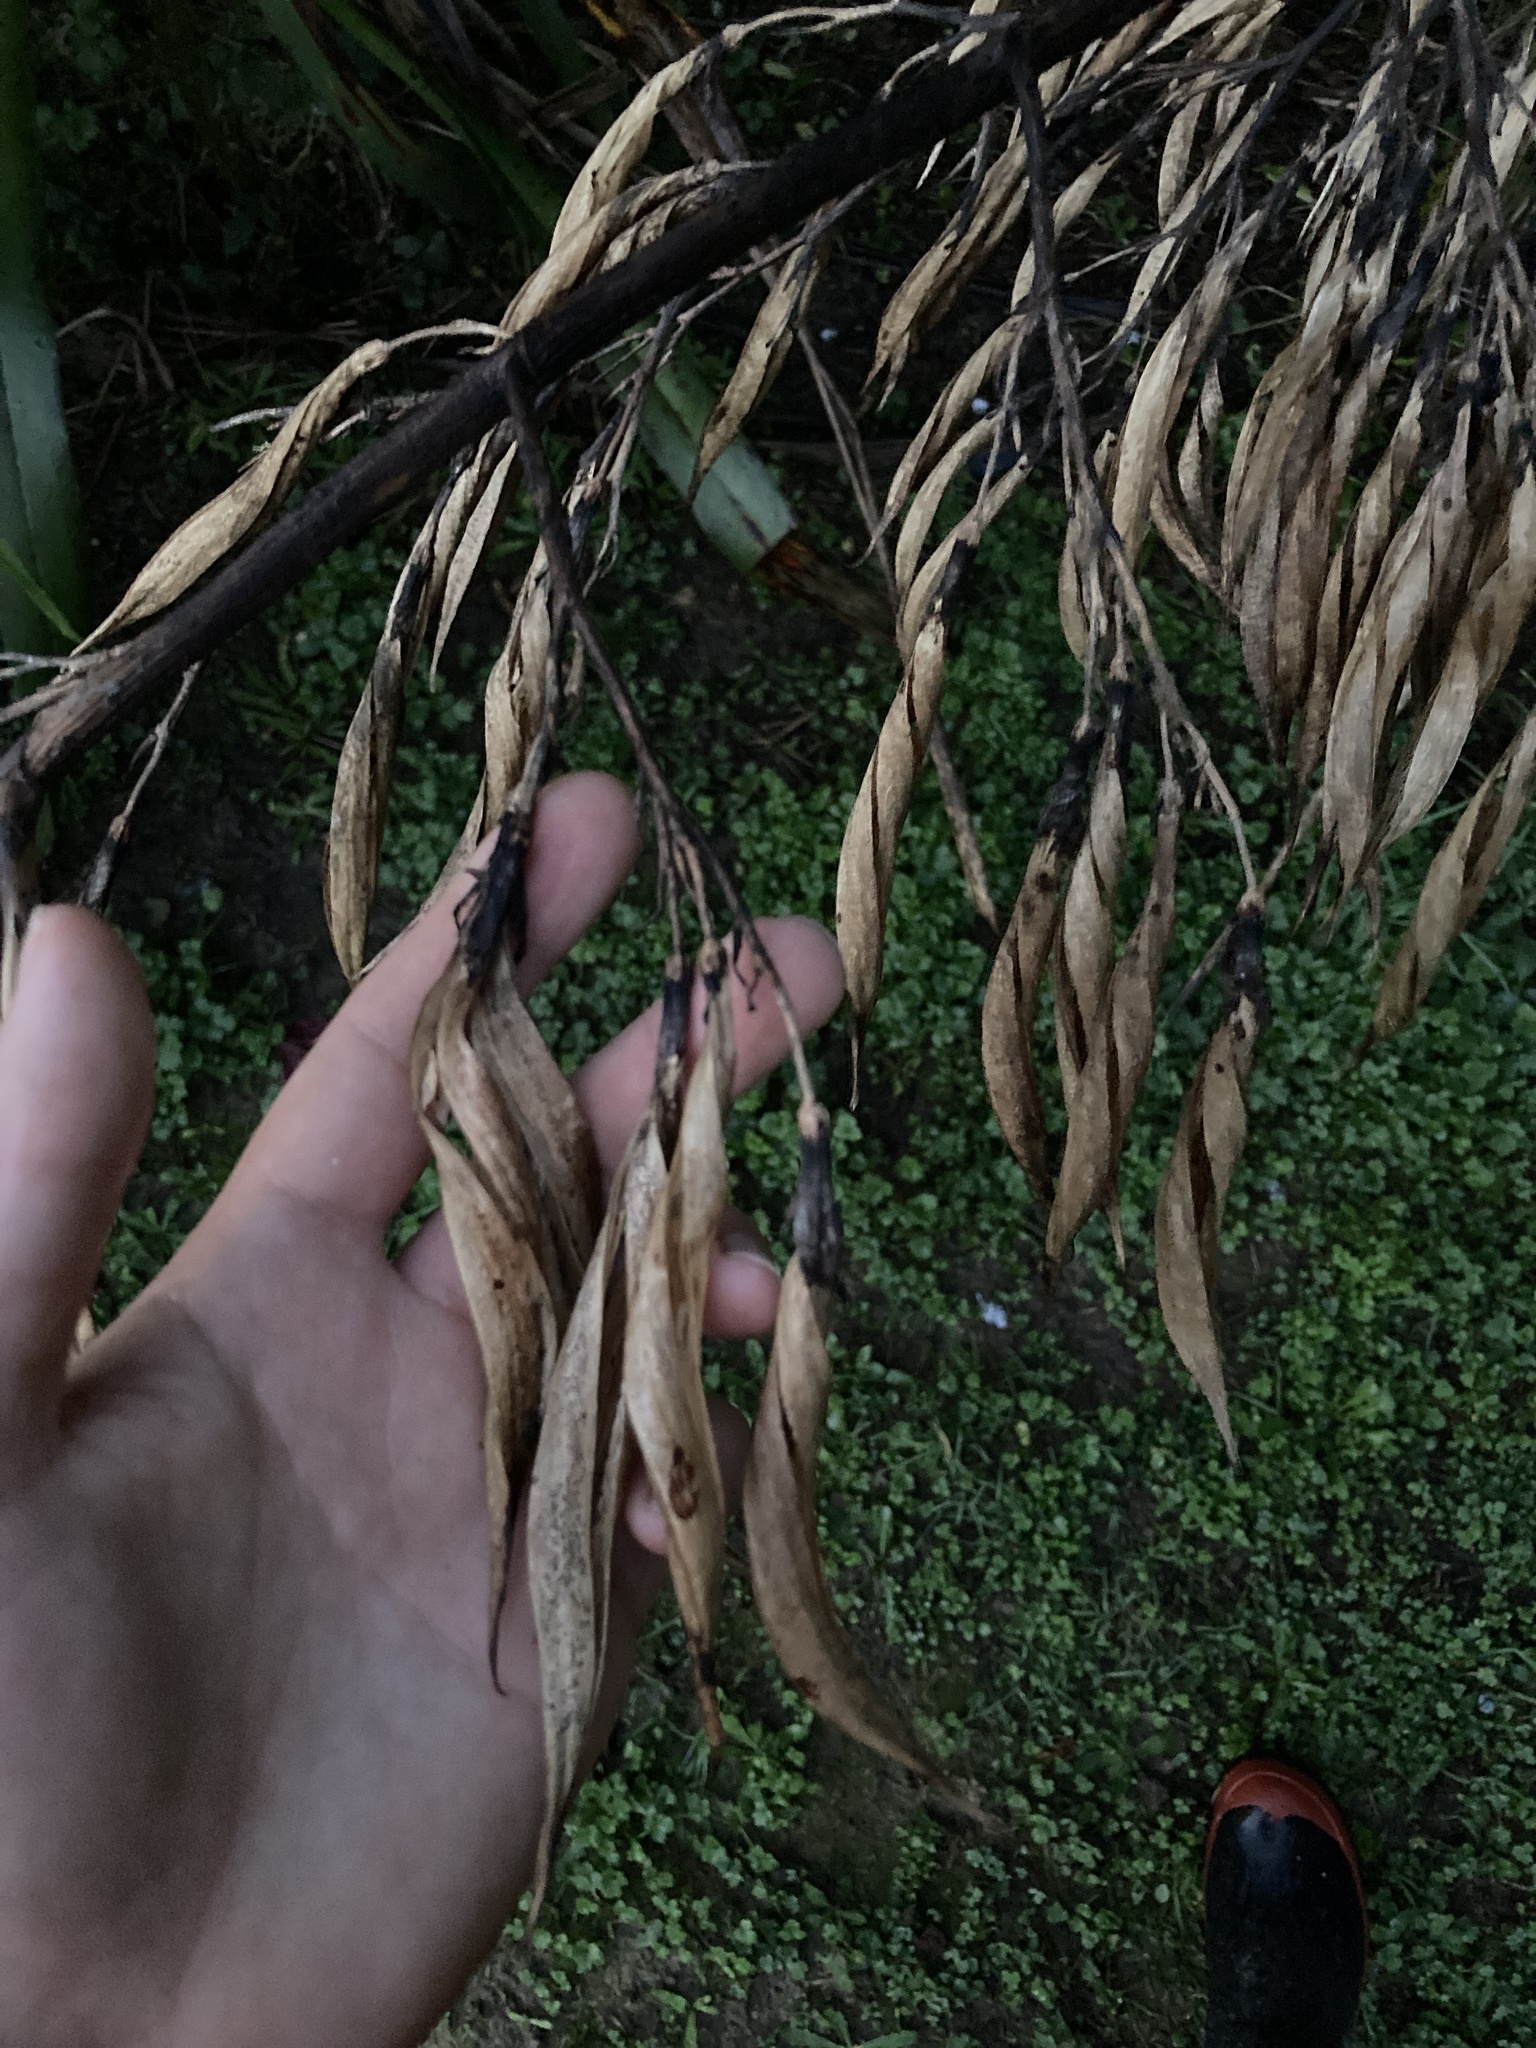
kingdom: Plantae
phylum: Tracheophyta
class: Liliopsida
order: Asparagales
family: Asphodelaceae
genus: Phormium
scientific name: Phormium colensoi
